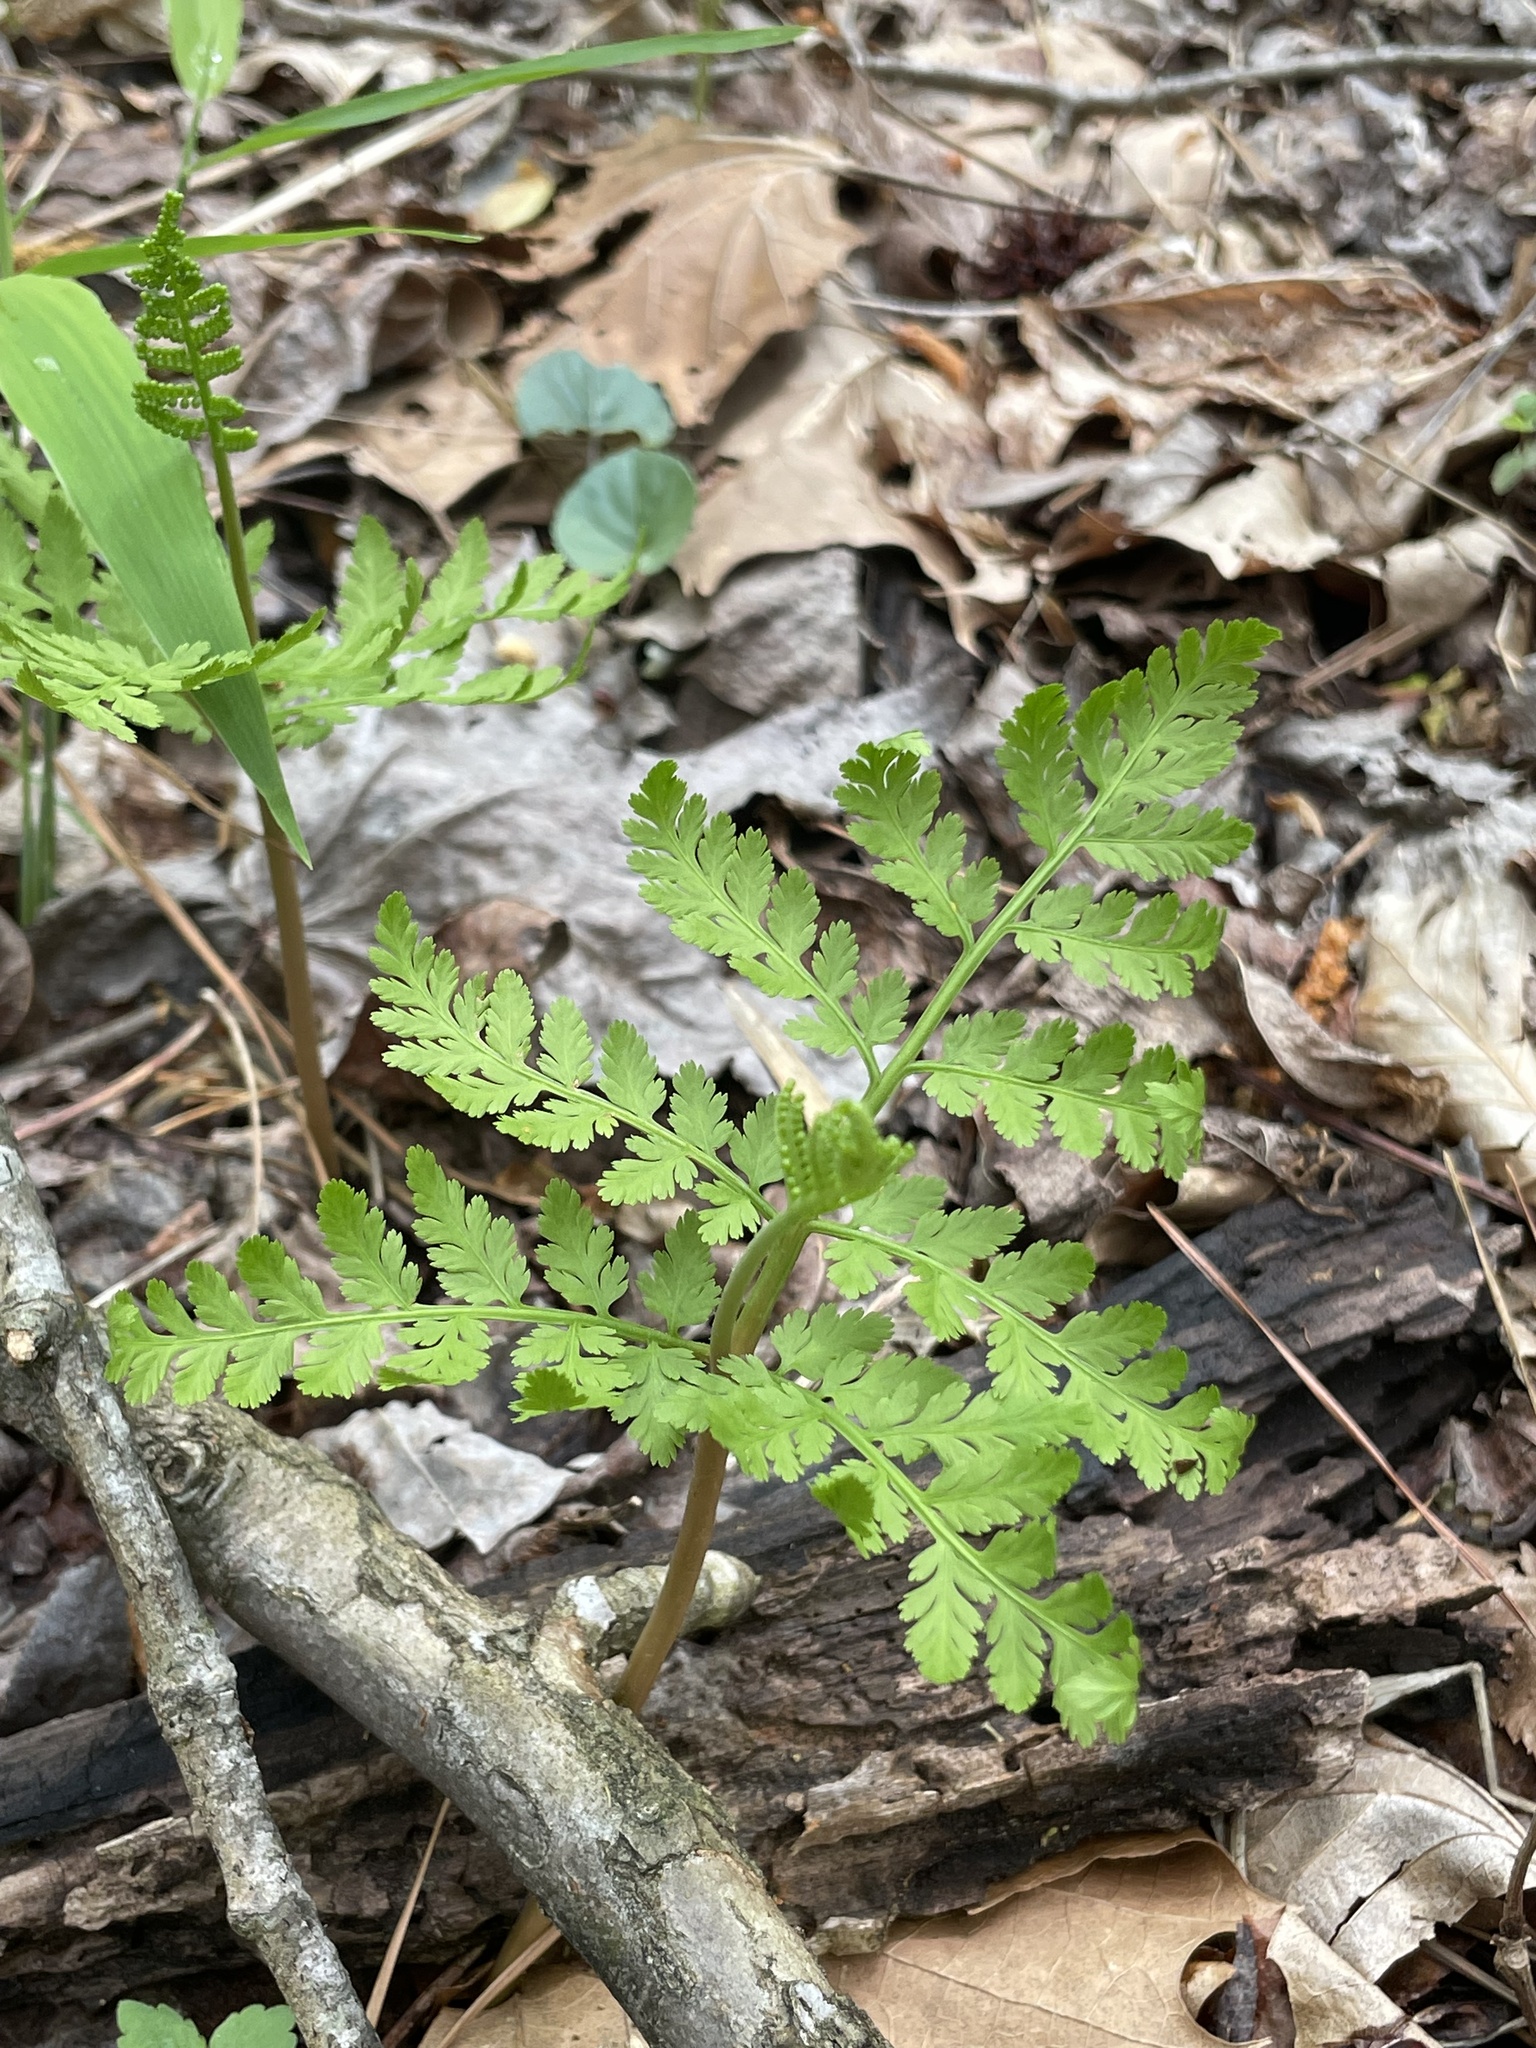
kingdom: Plantae
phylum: Tracheophyta
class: Polypodiopsida
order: Ophioglossales
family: Ophioglossaceae
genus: Botrypus
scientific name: Botrypus virginianus
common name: Common grapefern
